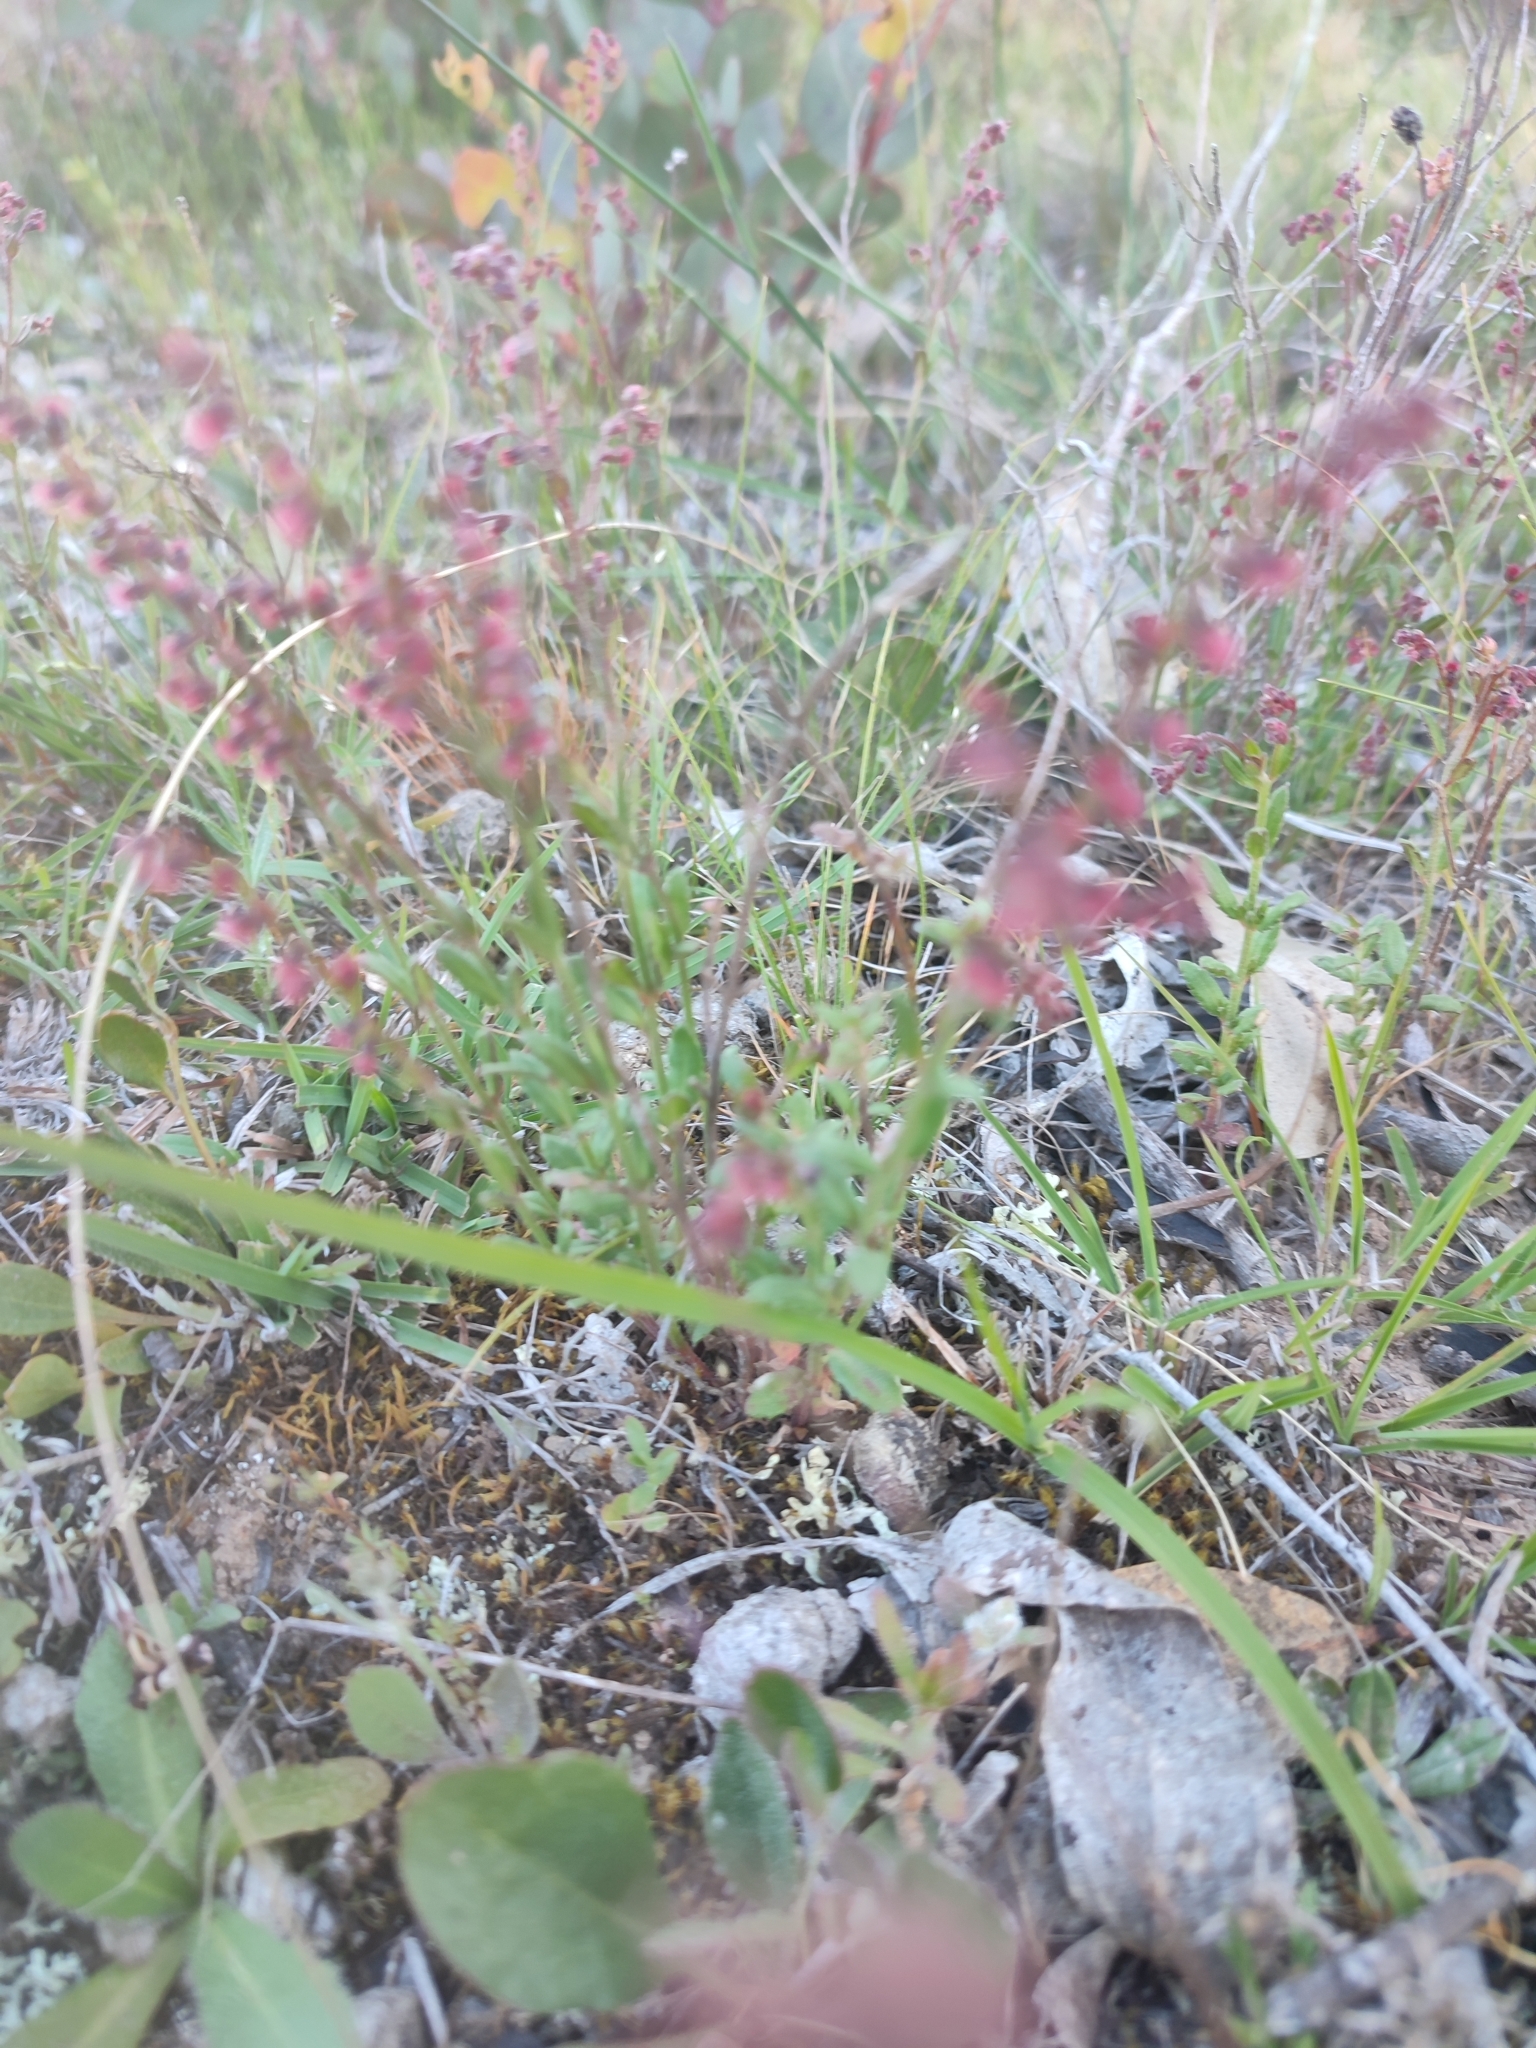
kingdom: Plantae
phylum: Tracheophyta
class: Magnoliopsida
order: Saxifragales
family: Haloragaceae
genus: Gonocarpus
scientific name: Gonocarpus tetragynus
